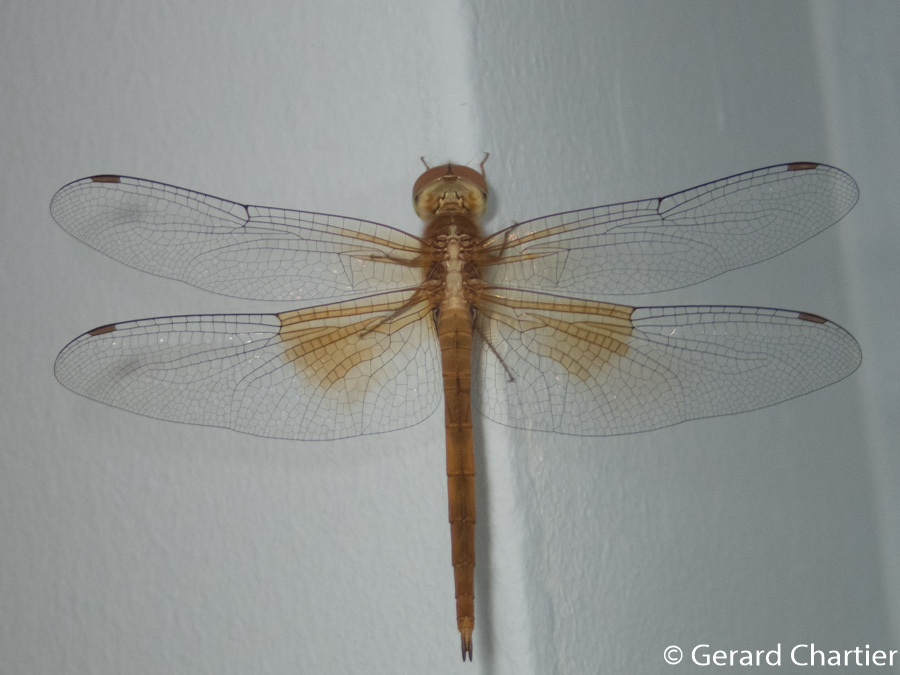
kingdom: Animalia
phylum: Arthropoda
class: Insecta
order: Odonata
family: Libellulidae
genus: Tholymis
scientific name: Tholymis tillarga
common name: Coral-tailed cloud wing
